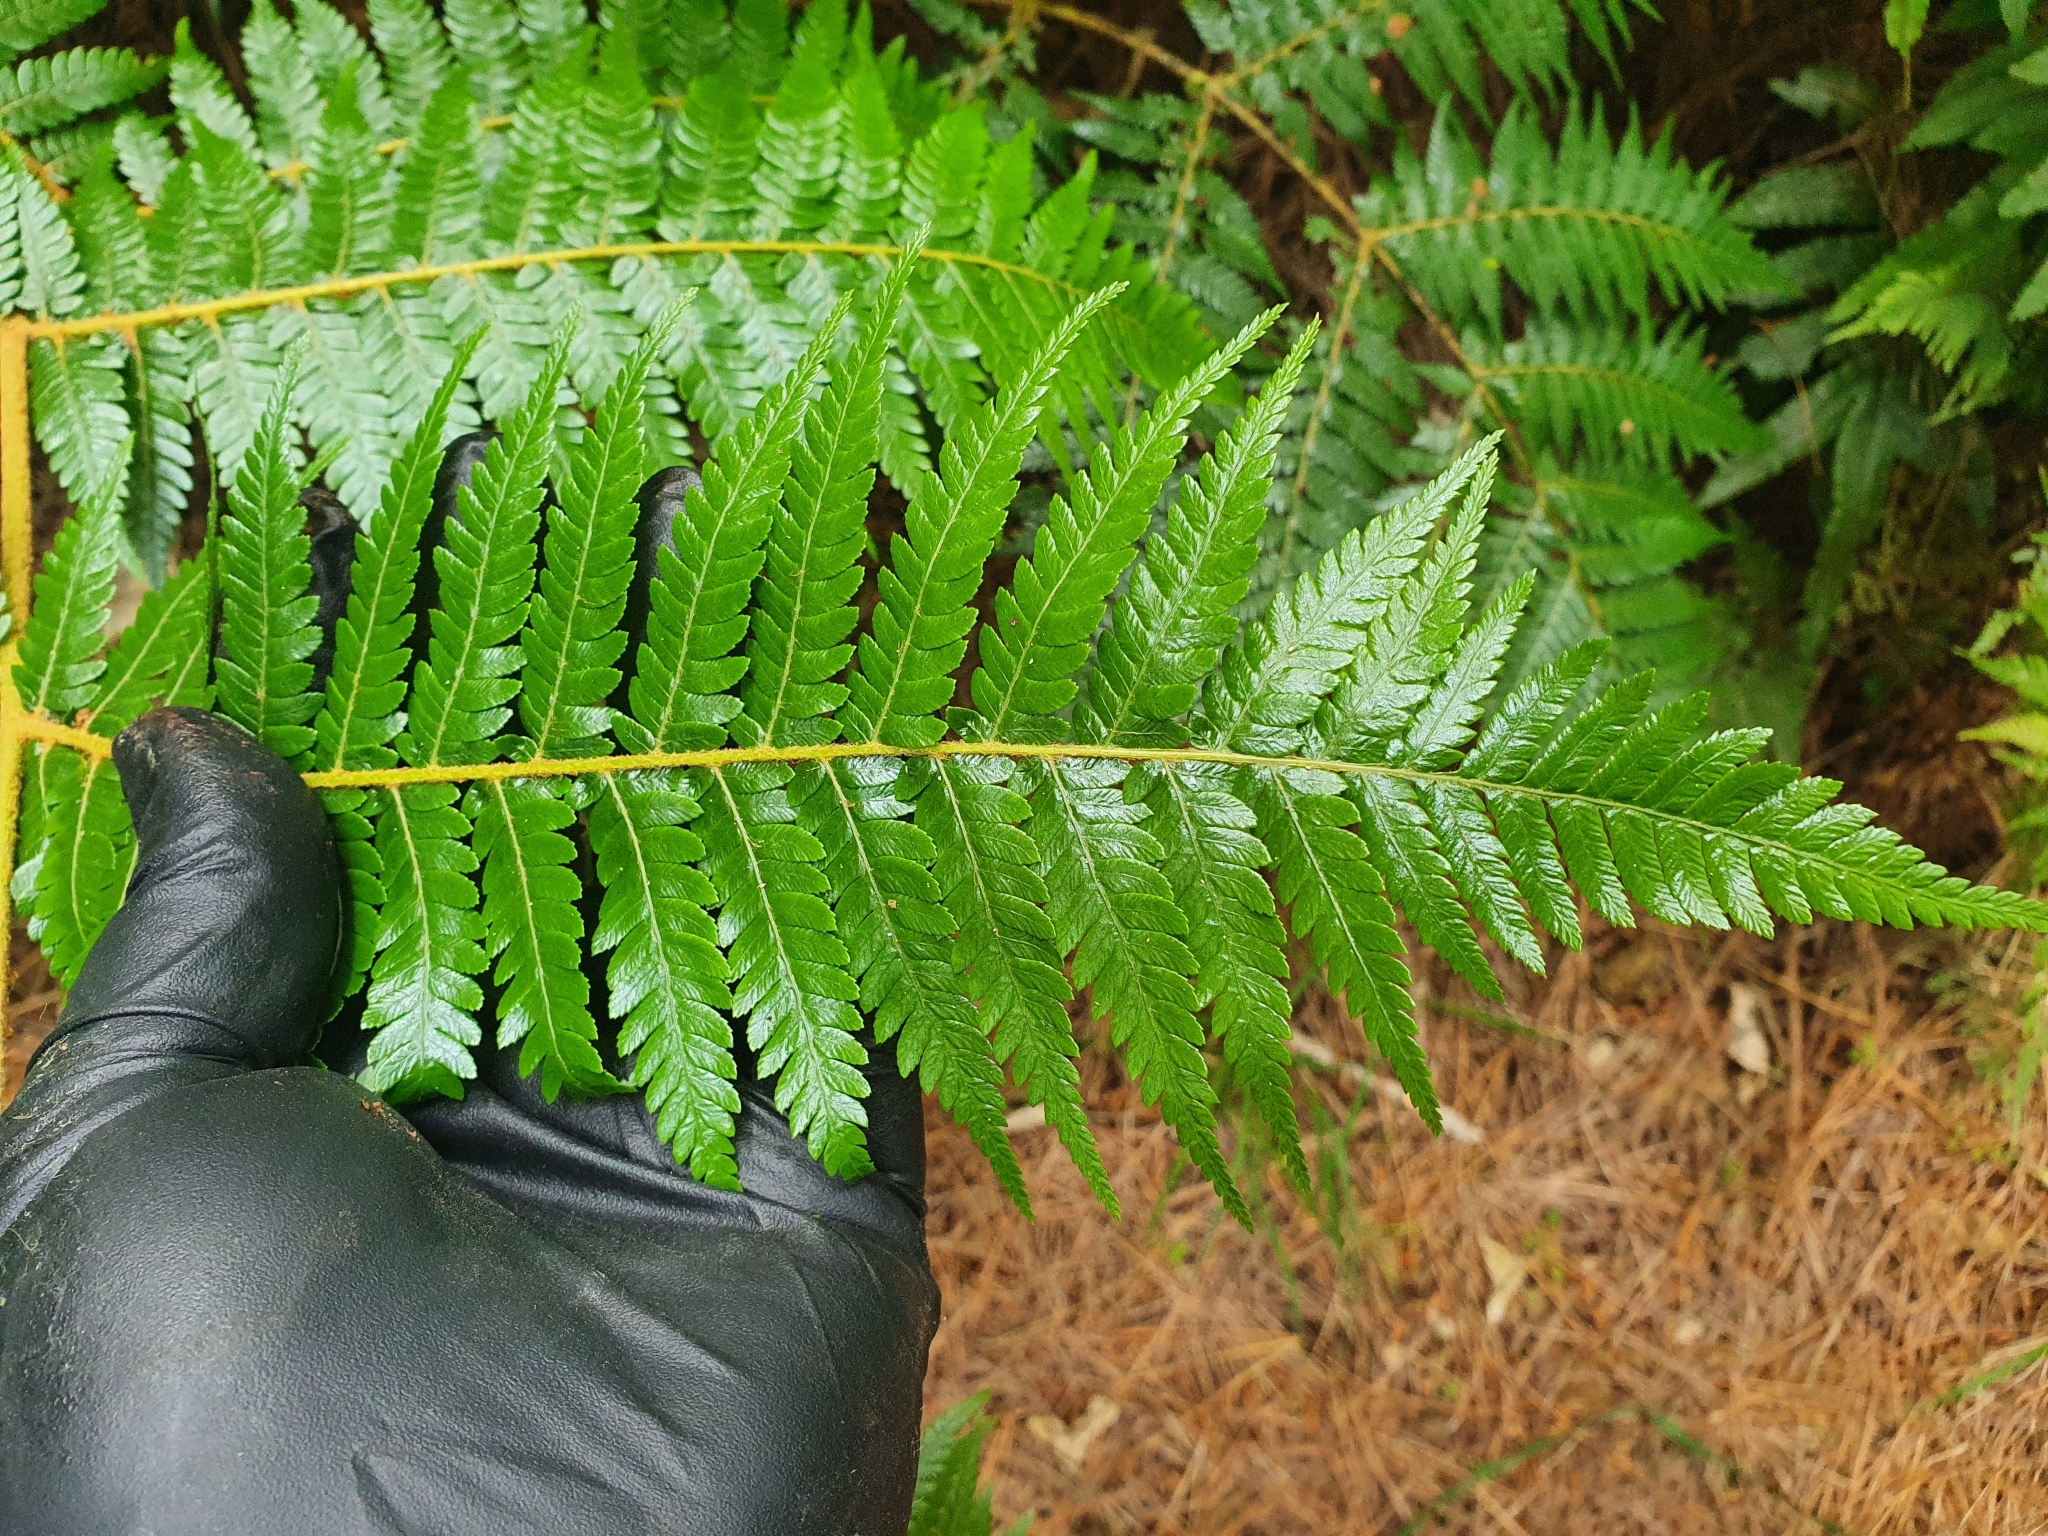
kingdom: Plantae
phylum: Tracheophyta
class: Polypodiopsida
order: Cyatheales
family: Cyatheaceae
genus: Alsophila
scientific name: Alsophila dealbata
